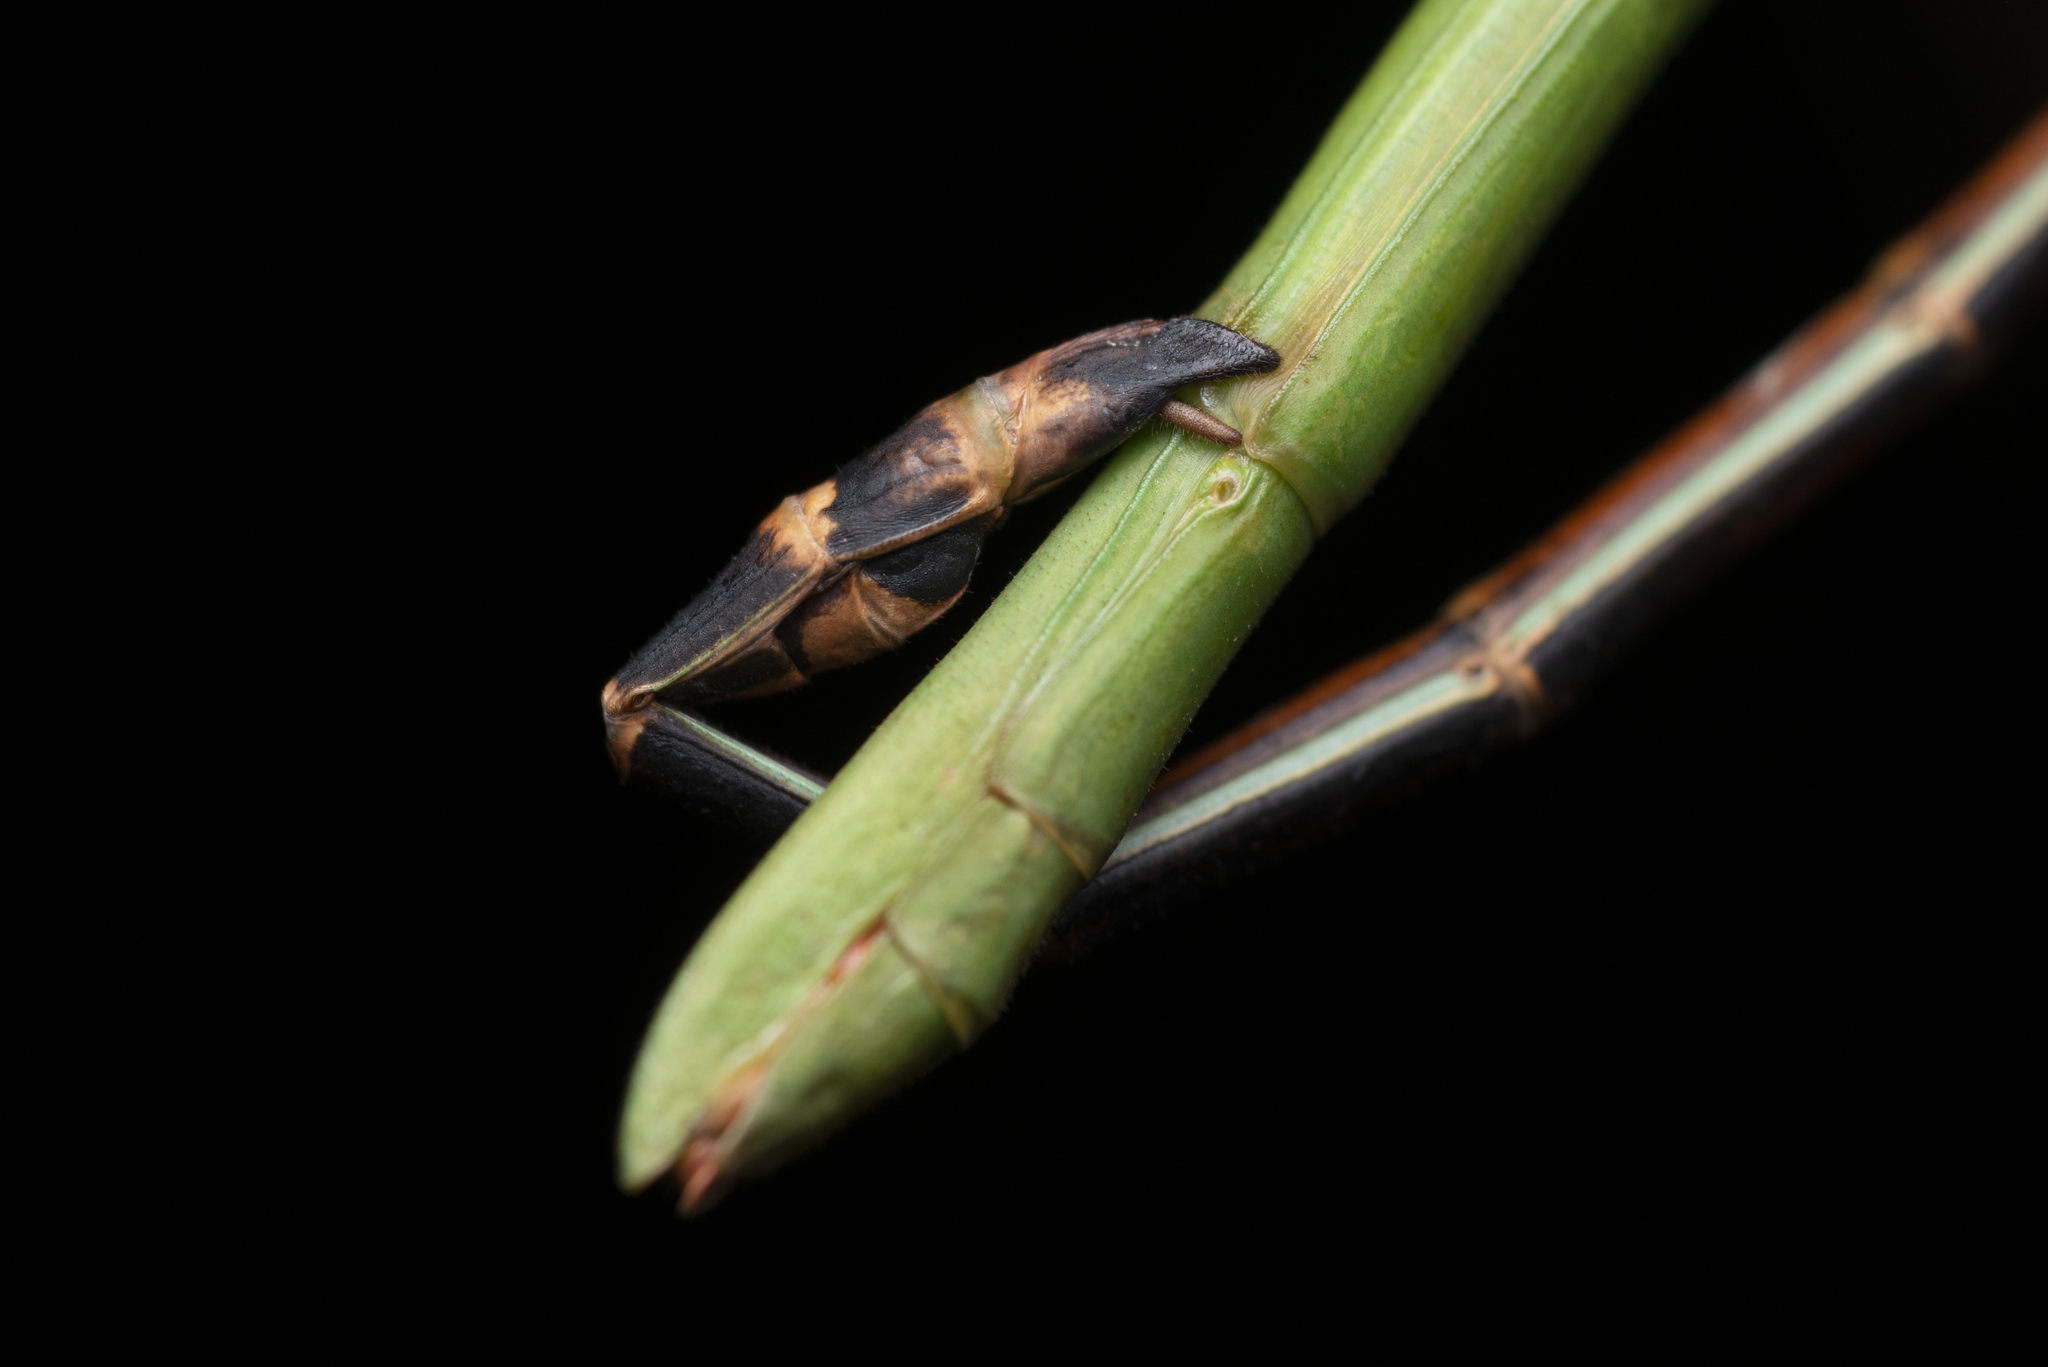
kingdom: Animalia
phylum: Arthropoda
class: Insecta
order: Phasmida
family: Phasmatidae
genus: Ramulus
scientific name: Ramulus caii
